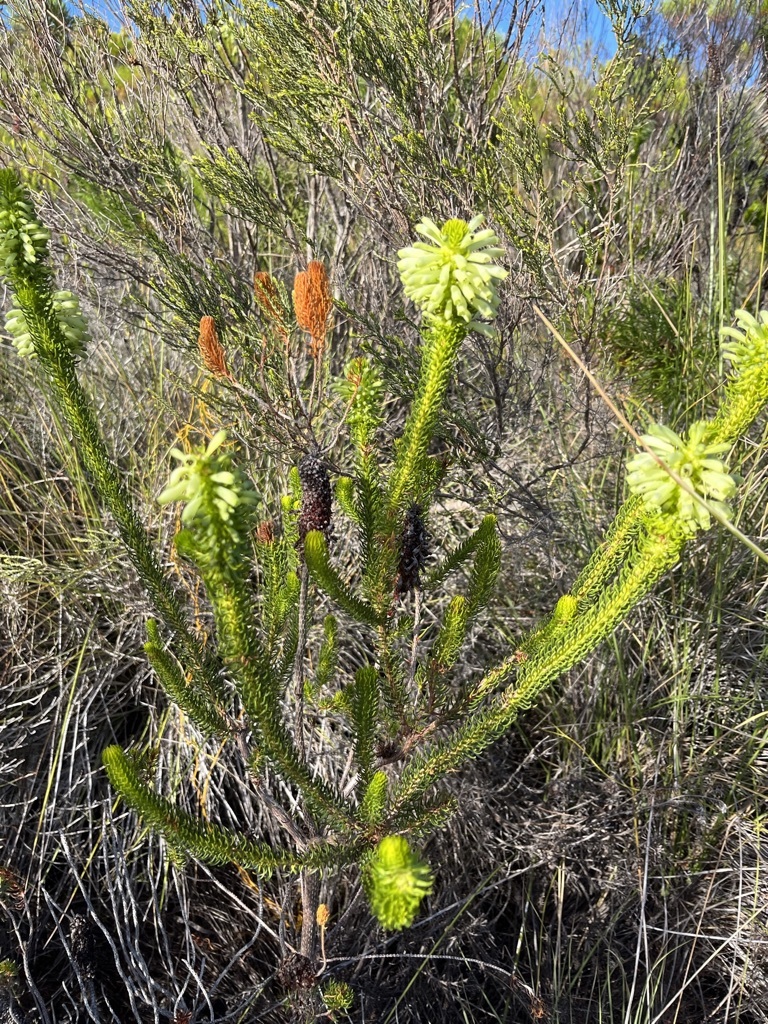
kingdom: Plantae
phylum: Tracheophyta
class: Magnoliopsida
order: Ericales
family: Ericaceae
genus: Erica
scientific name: Erica sessiliflora
